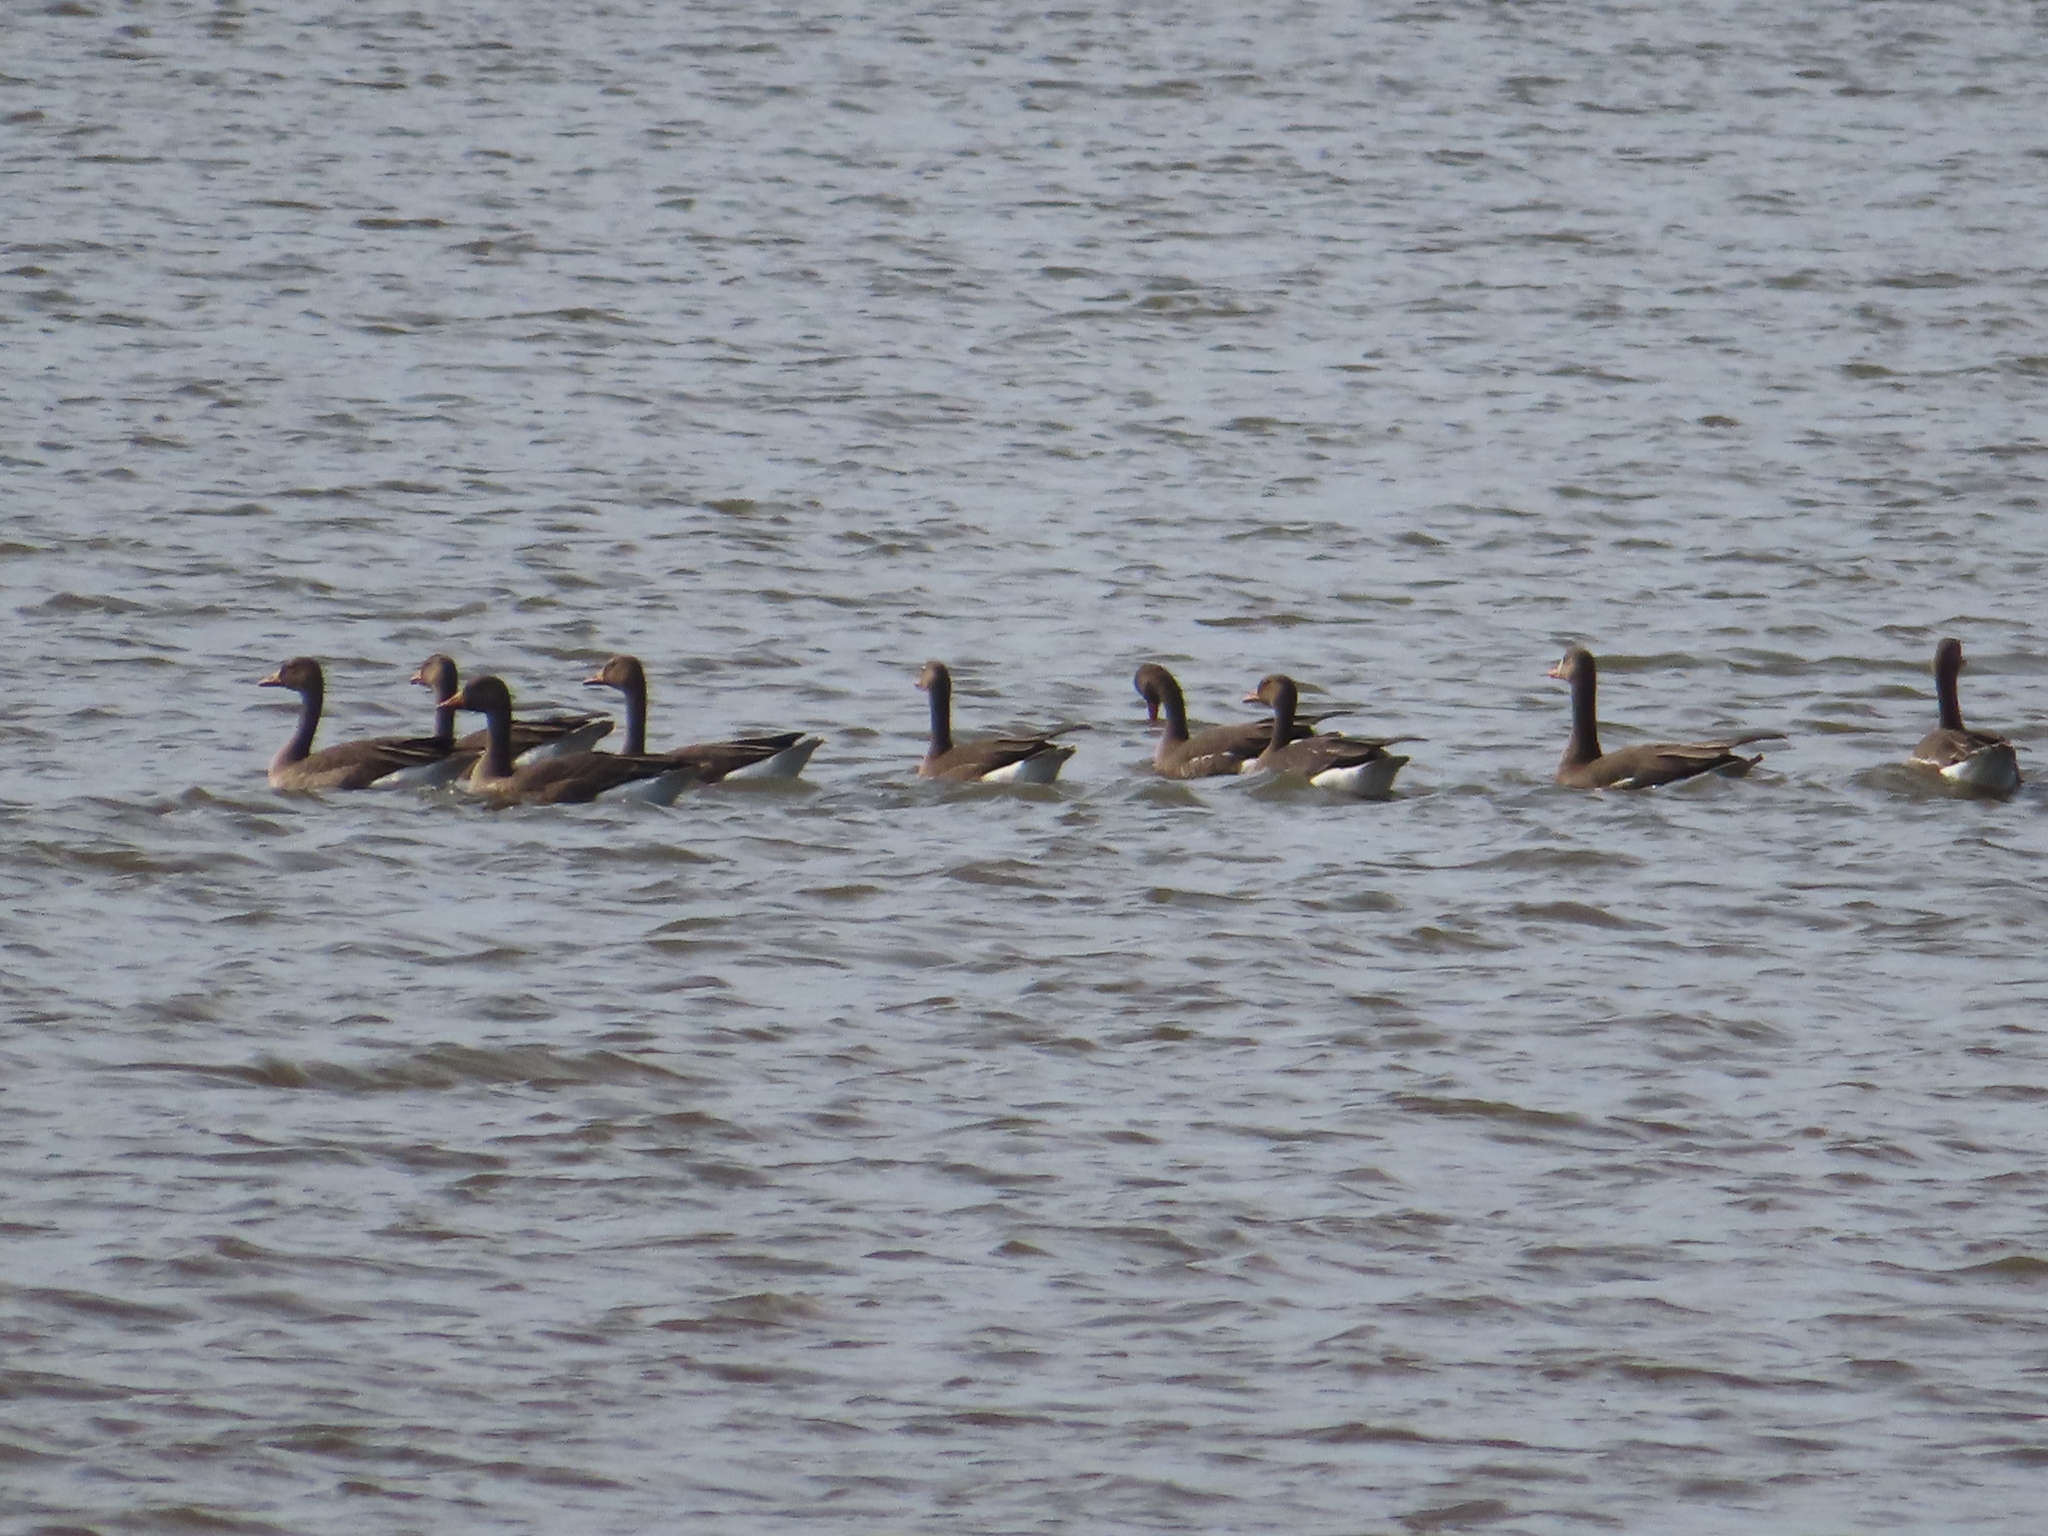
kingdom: Animalia
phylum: Chordata
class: Aves
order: Anseriformes
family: Anatidae
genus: Anser
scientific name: Anser albifrons
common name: Greater white-fronted goose
